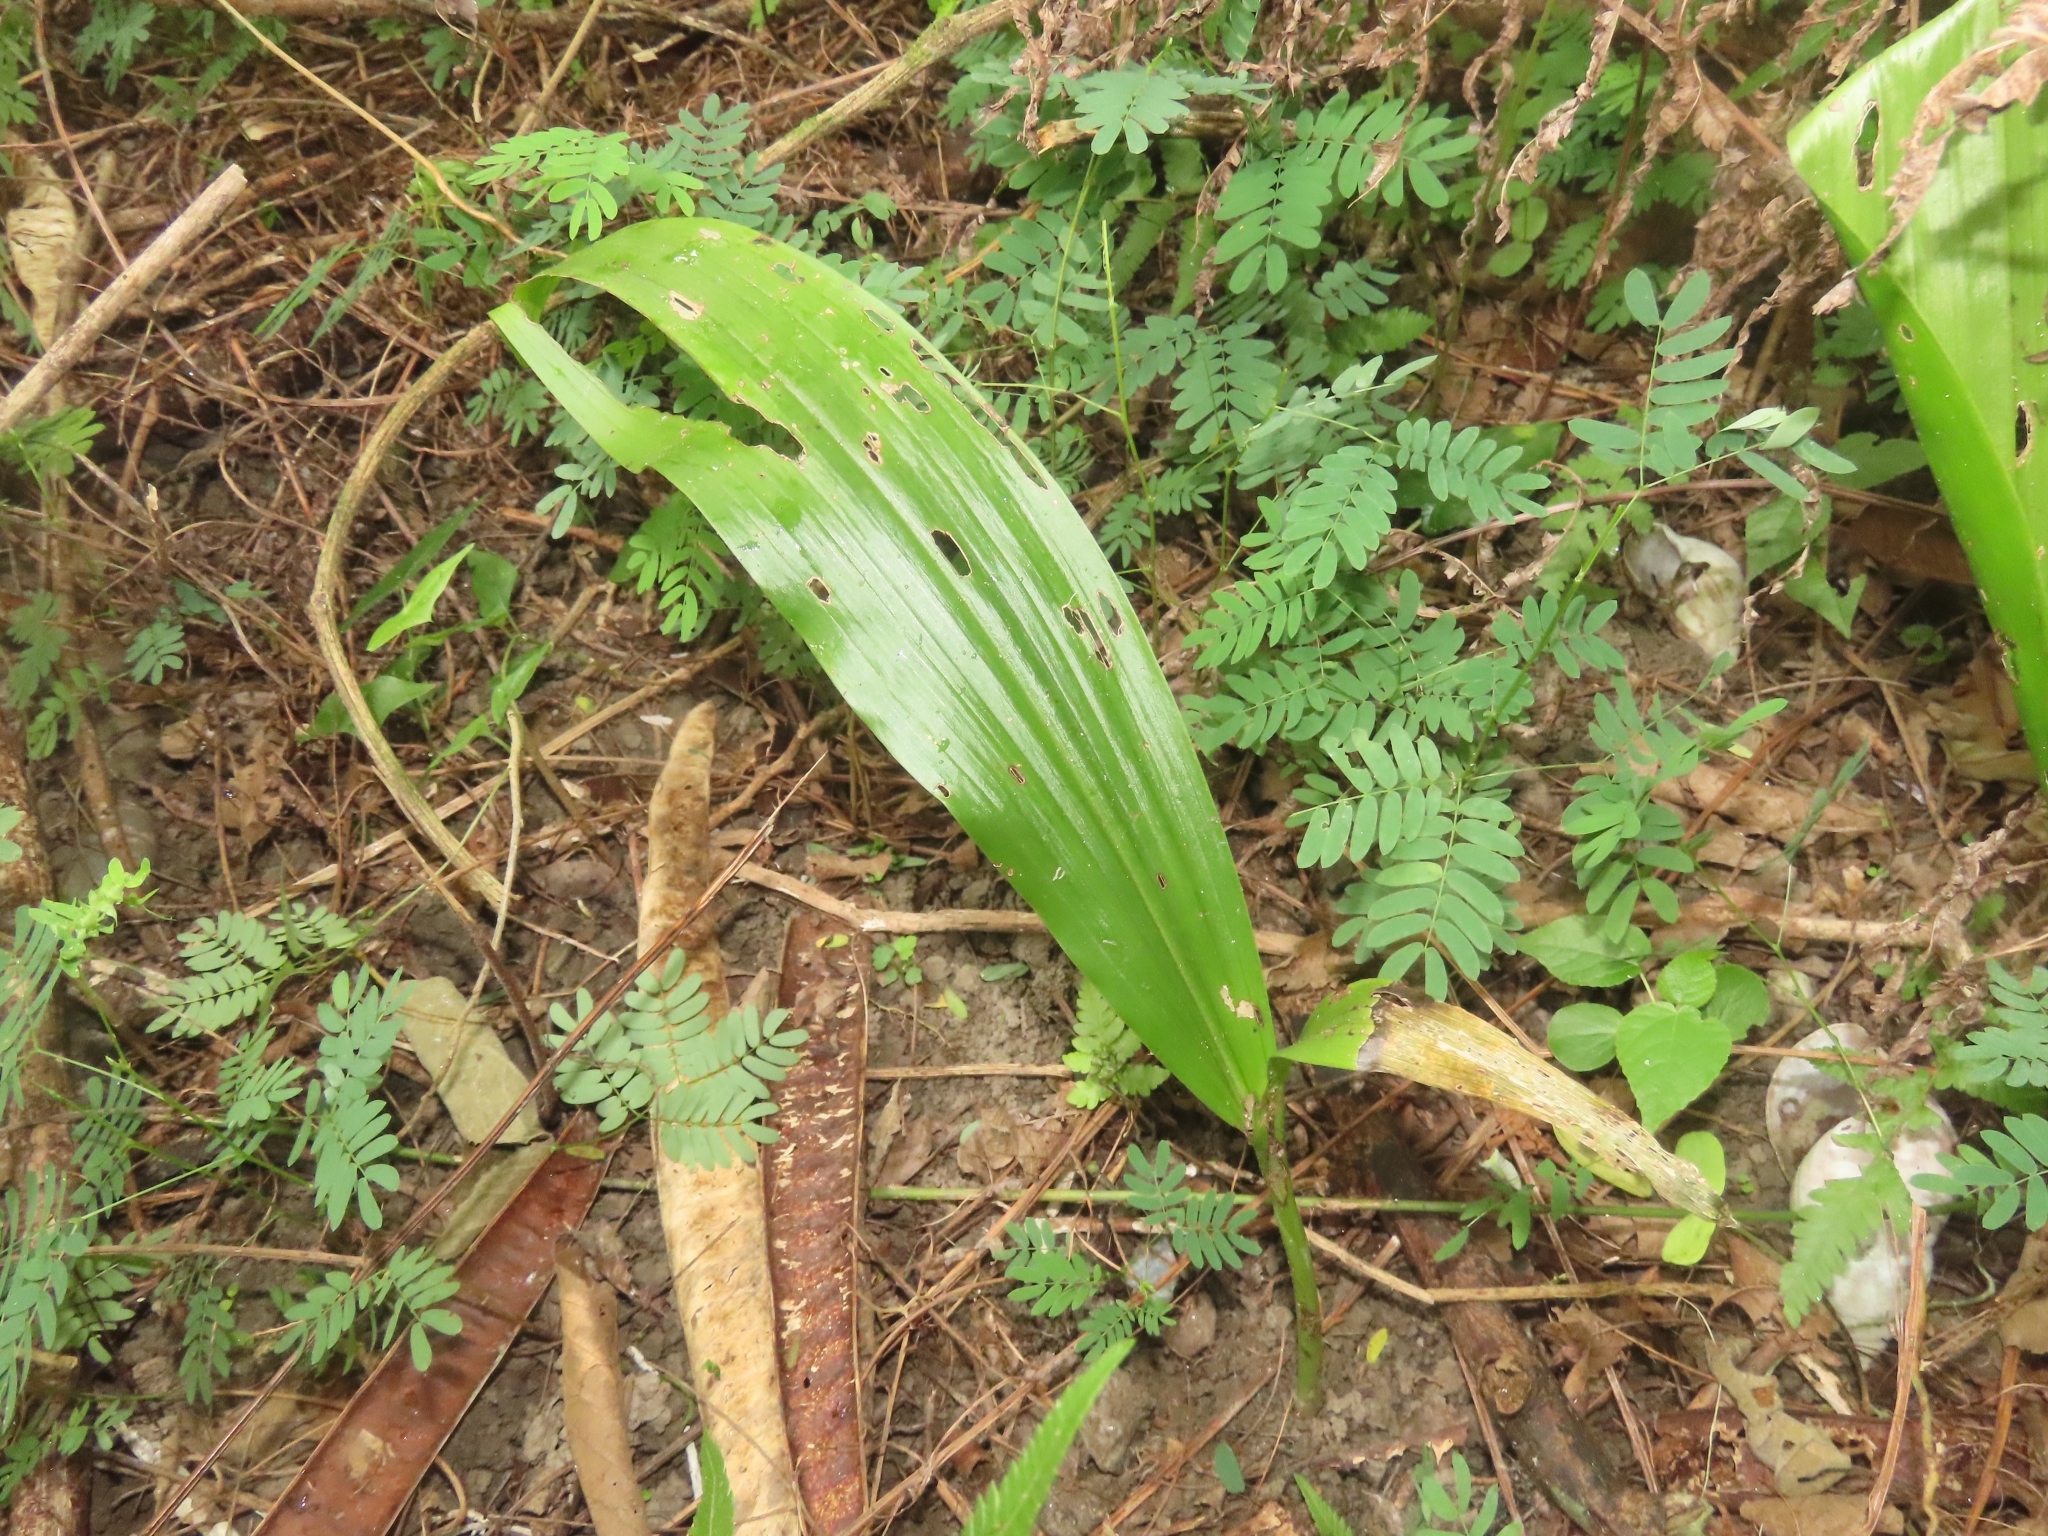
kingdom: Plantae
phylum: Tracheophyta
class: Liliopsida
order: Asparagales
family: Orchidaceae
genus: Eulophia
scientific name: Eulophia cernua
